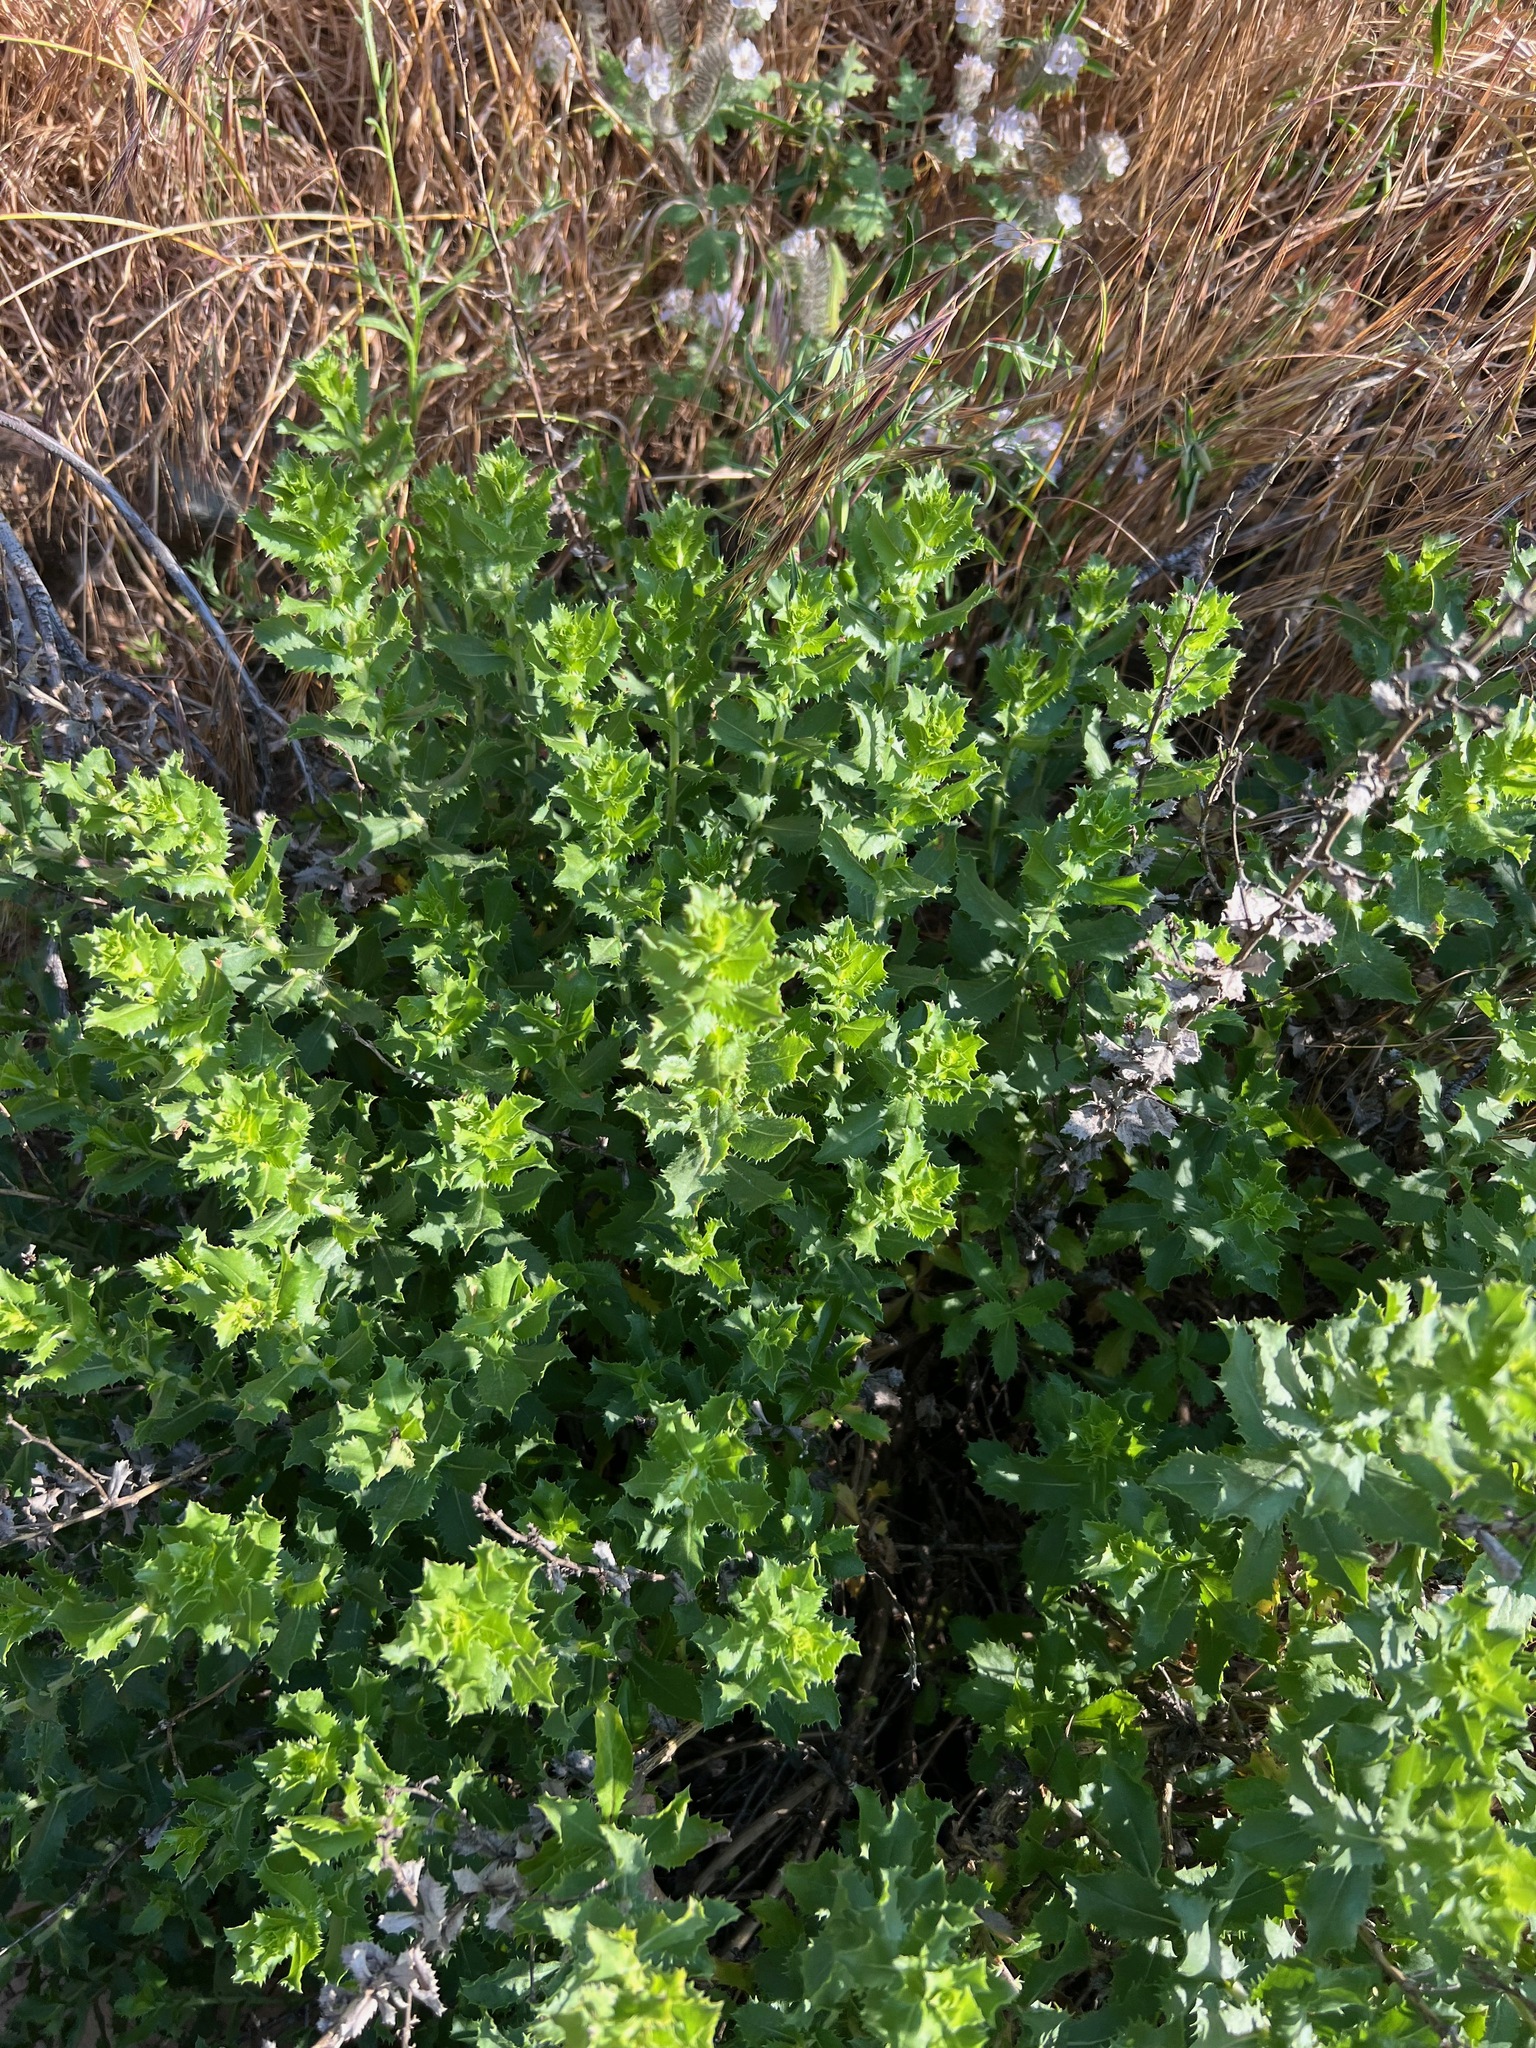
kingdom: Plantae
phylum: Tracheophyta
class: Magnoliopsida
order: Asterales
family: Asteraceae
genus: Hazardia
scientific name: Hazardia squarrosa
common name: Saw-tooth goldenbush
